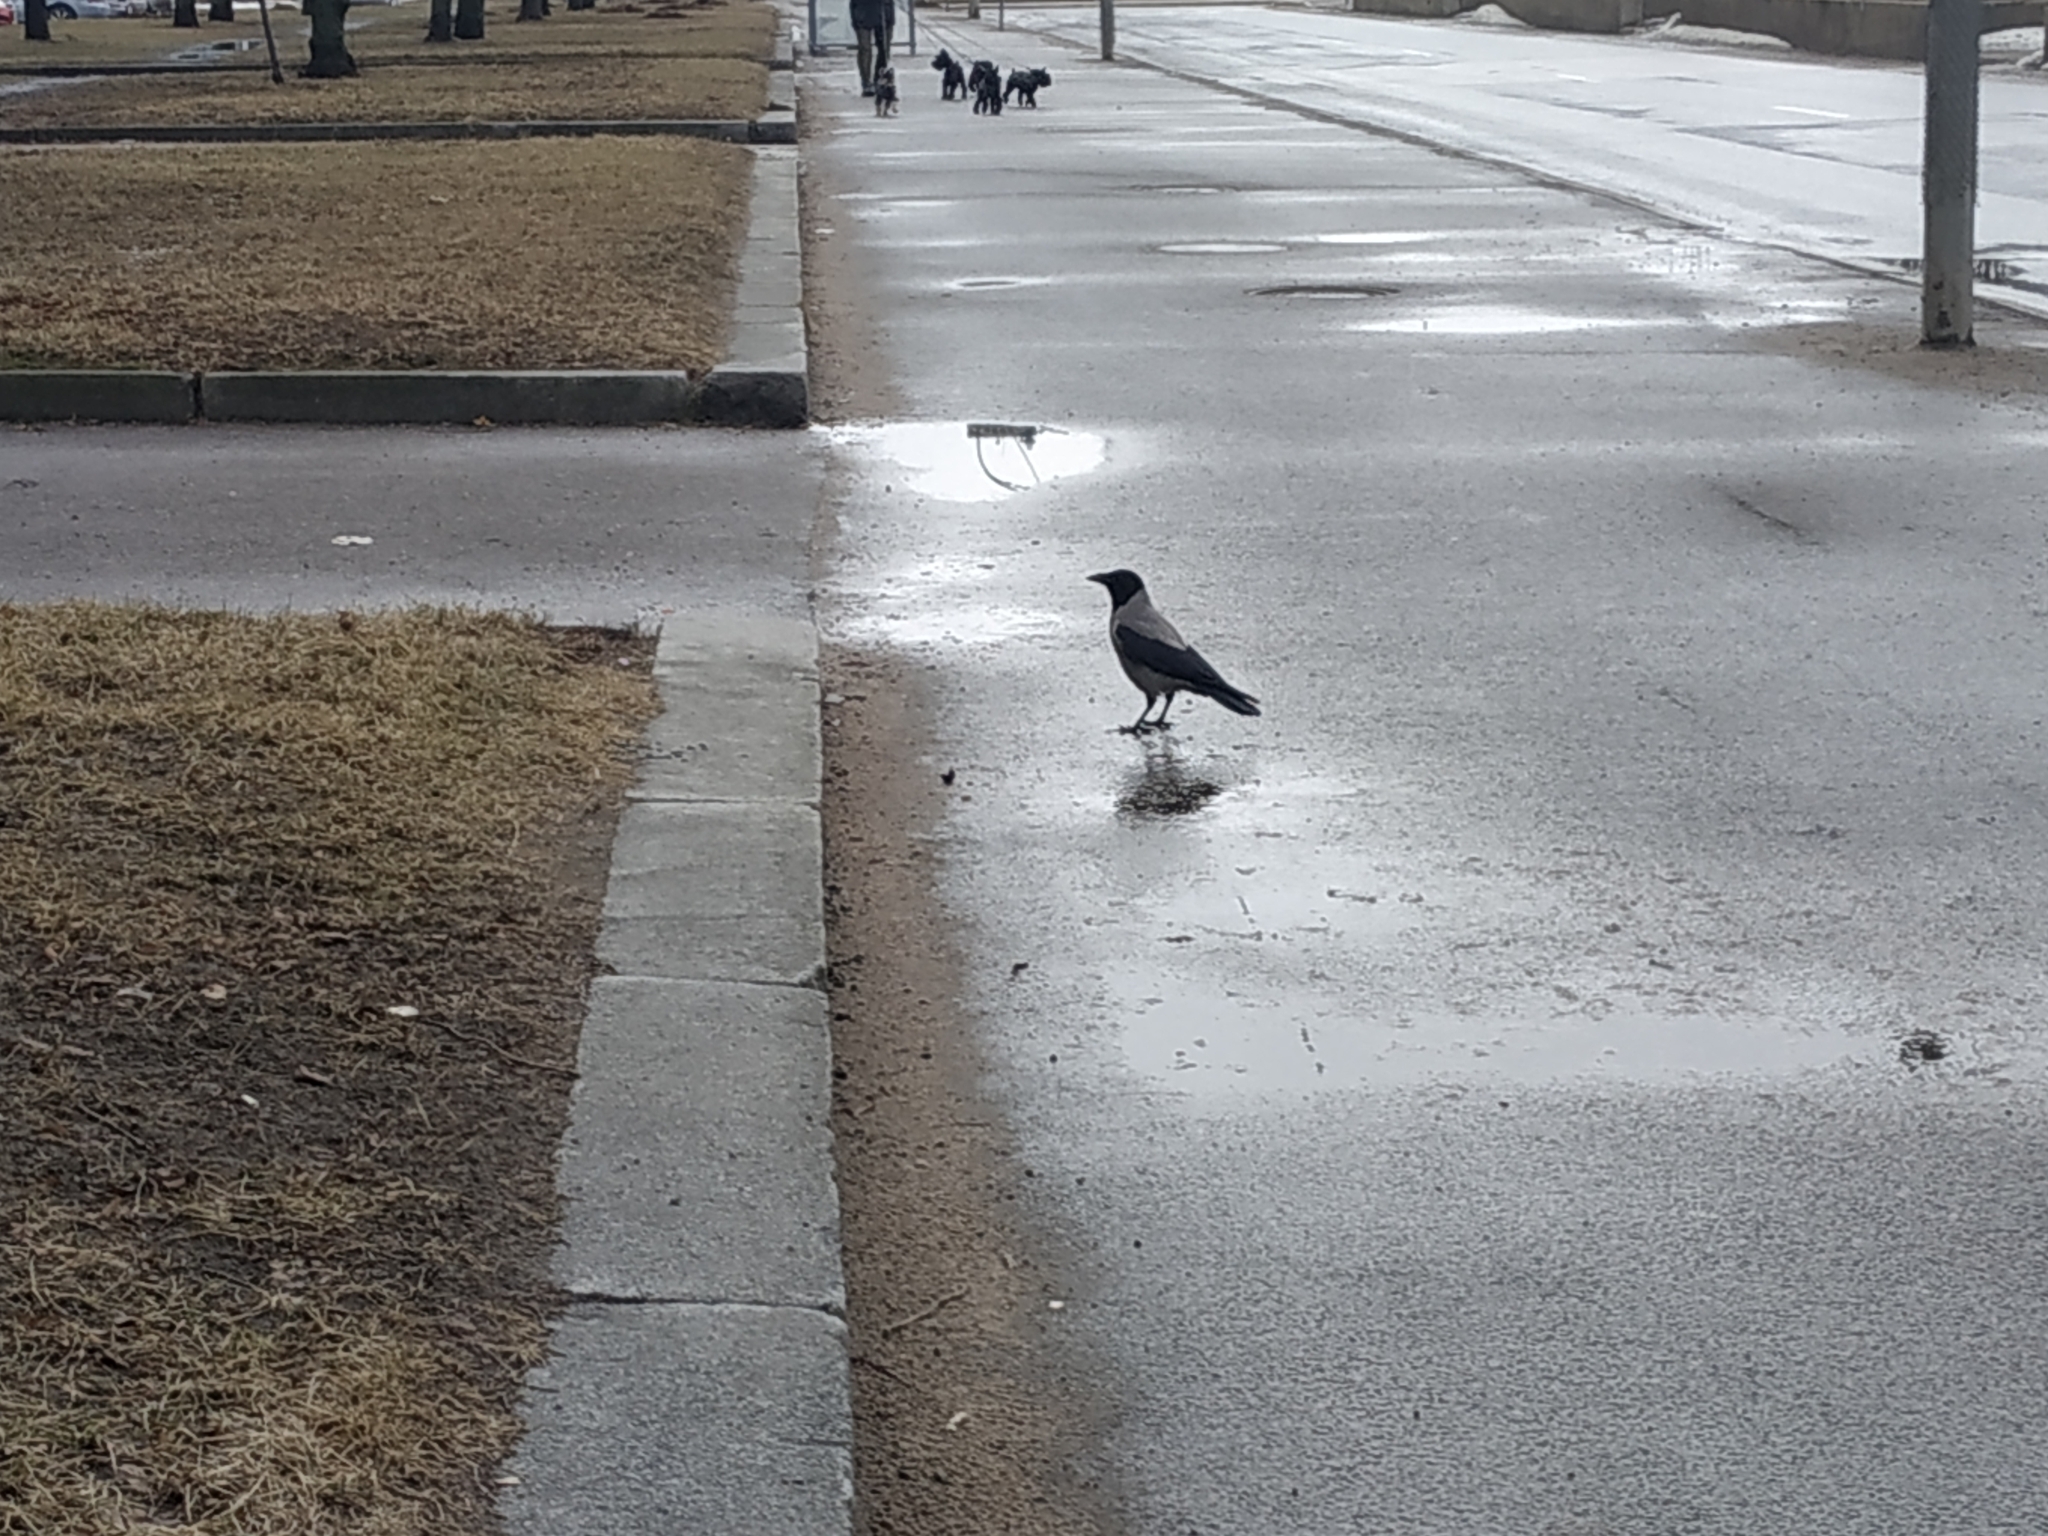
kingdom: Animalia
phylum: Chordata
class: Aves
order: Passeriformes
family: Corvidae
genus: Corvus
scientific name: Corvus cornix
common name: Hooded crow
